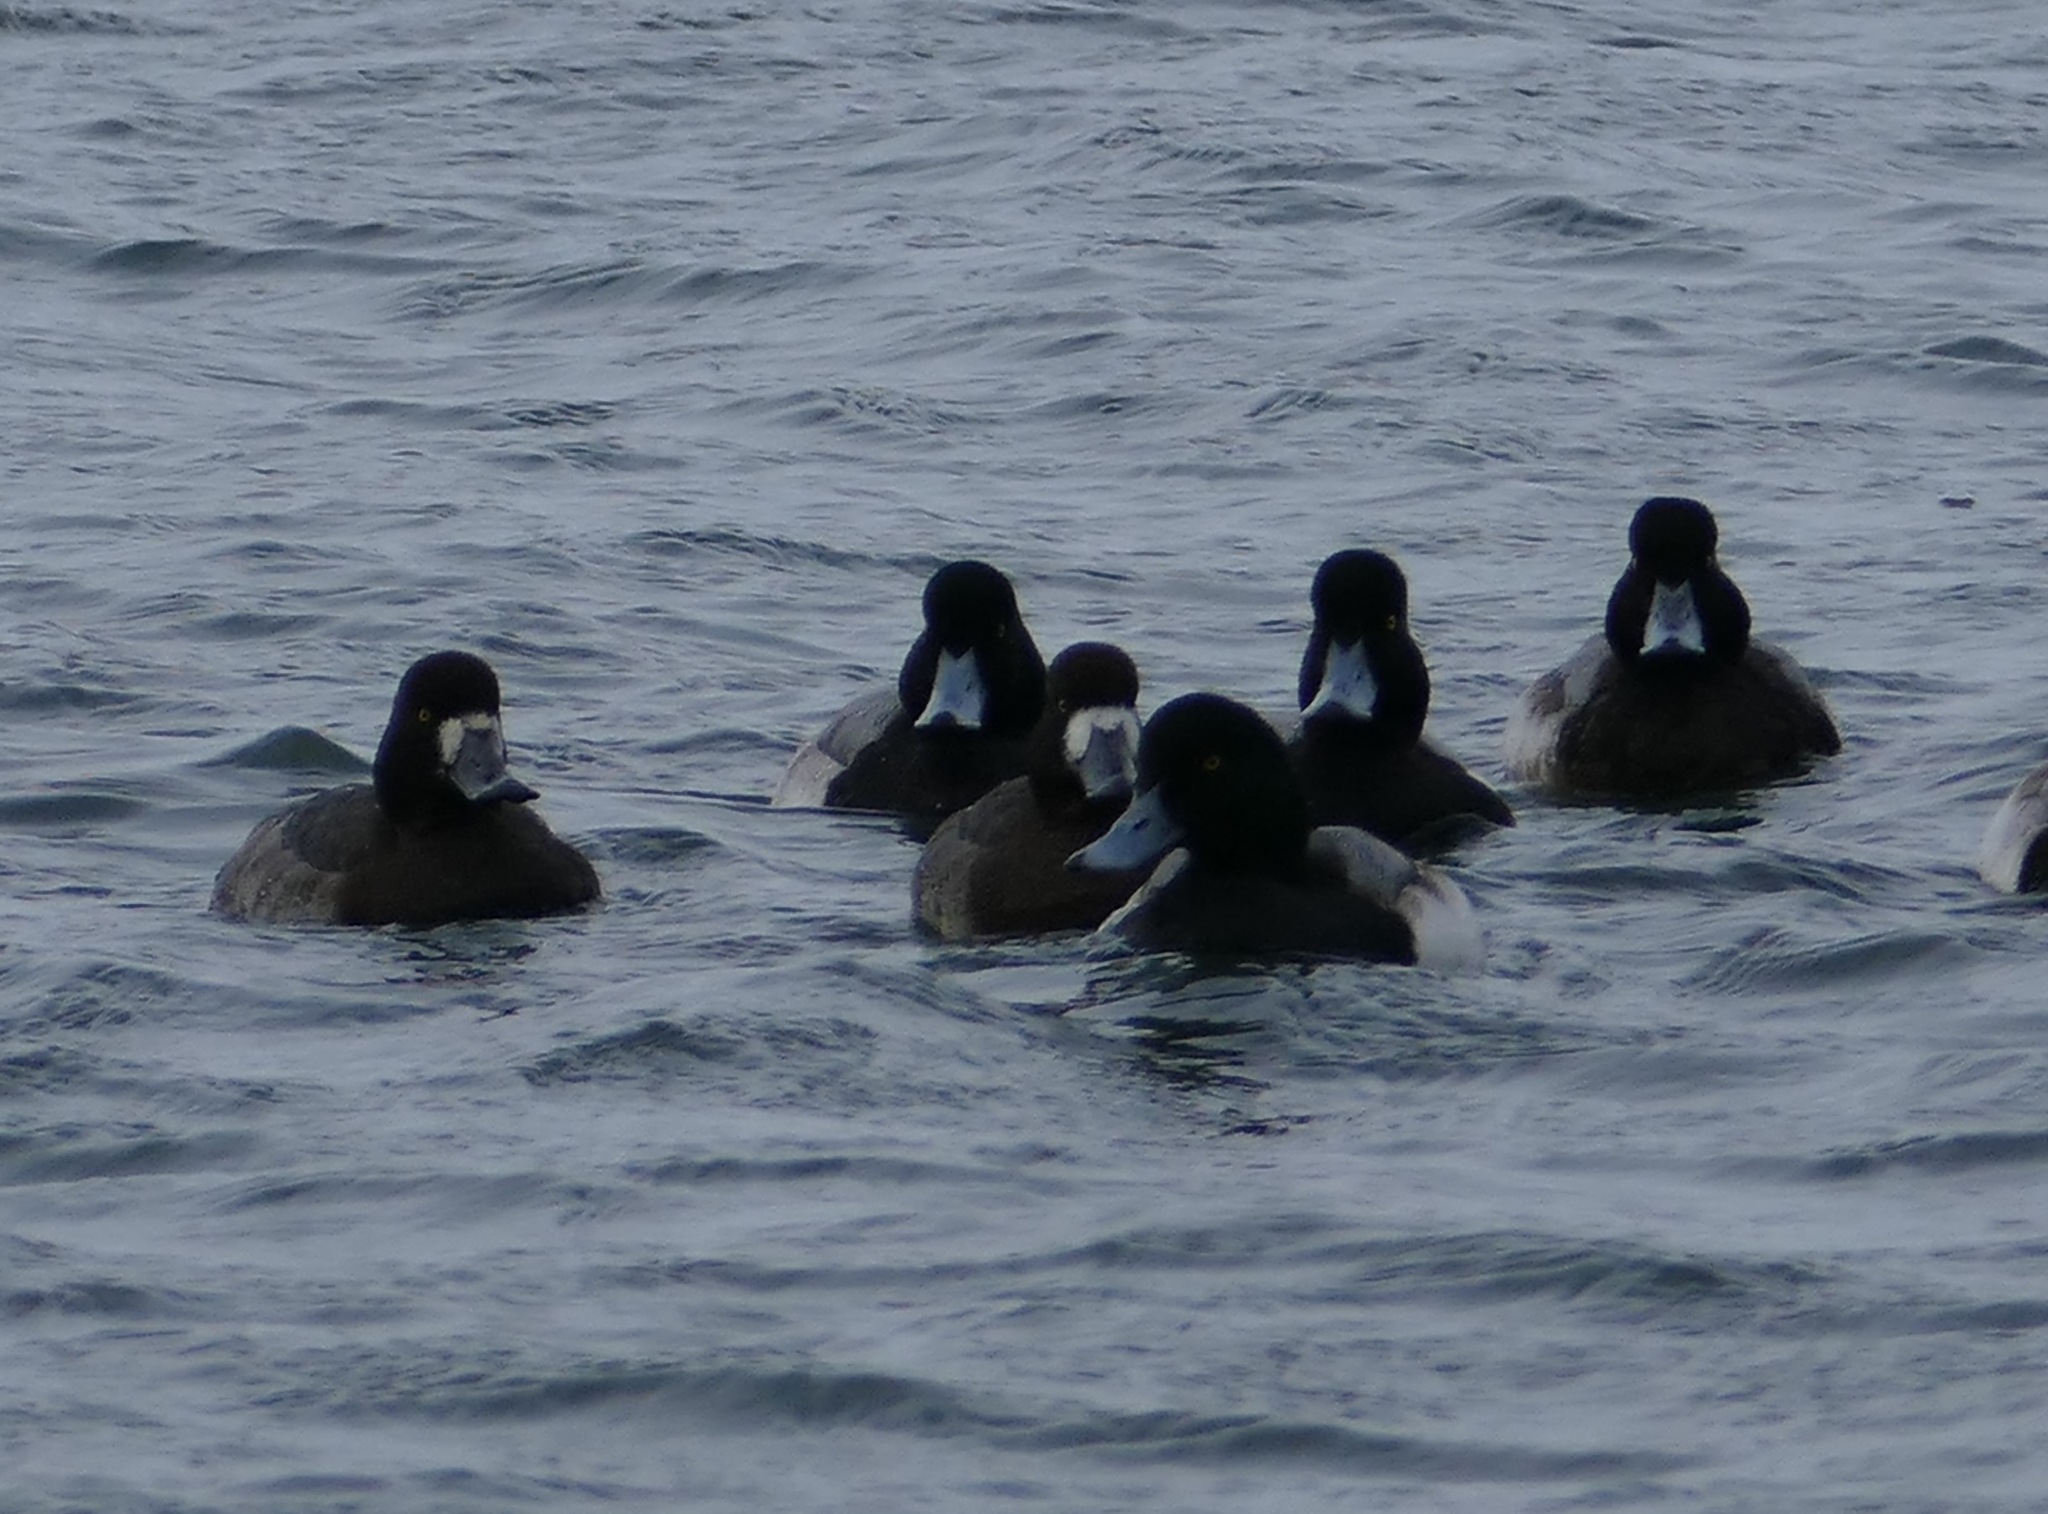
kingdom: Animalia
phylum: Chordata
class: Aves
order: Anseriformes
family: Anatidae
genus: Aythya
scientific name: Aythya marila
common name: Greater scaup
